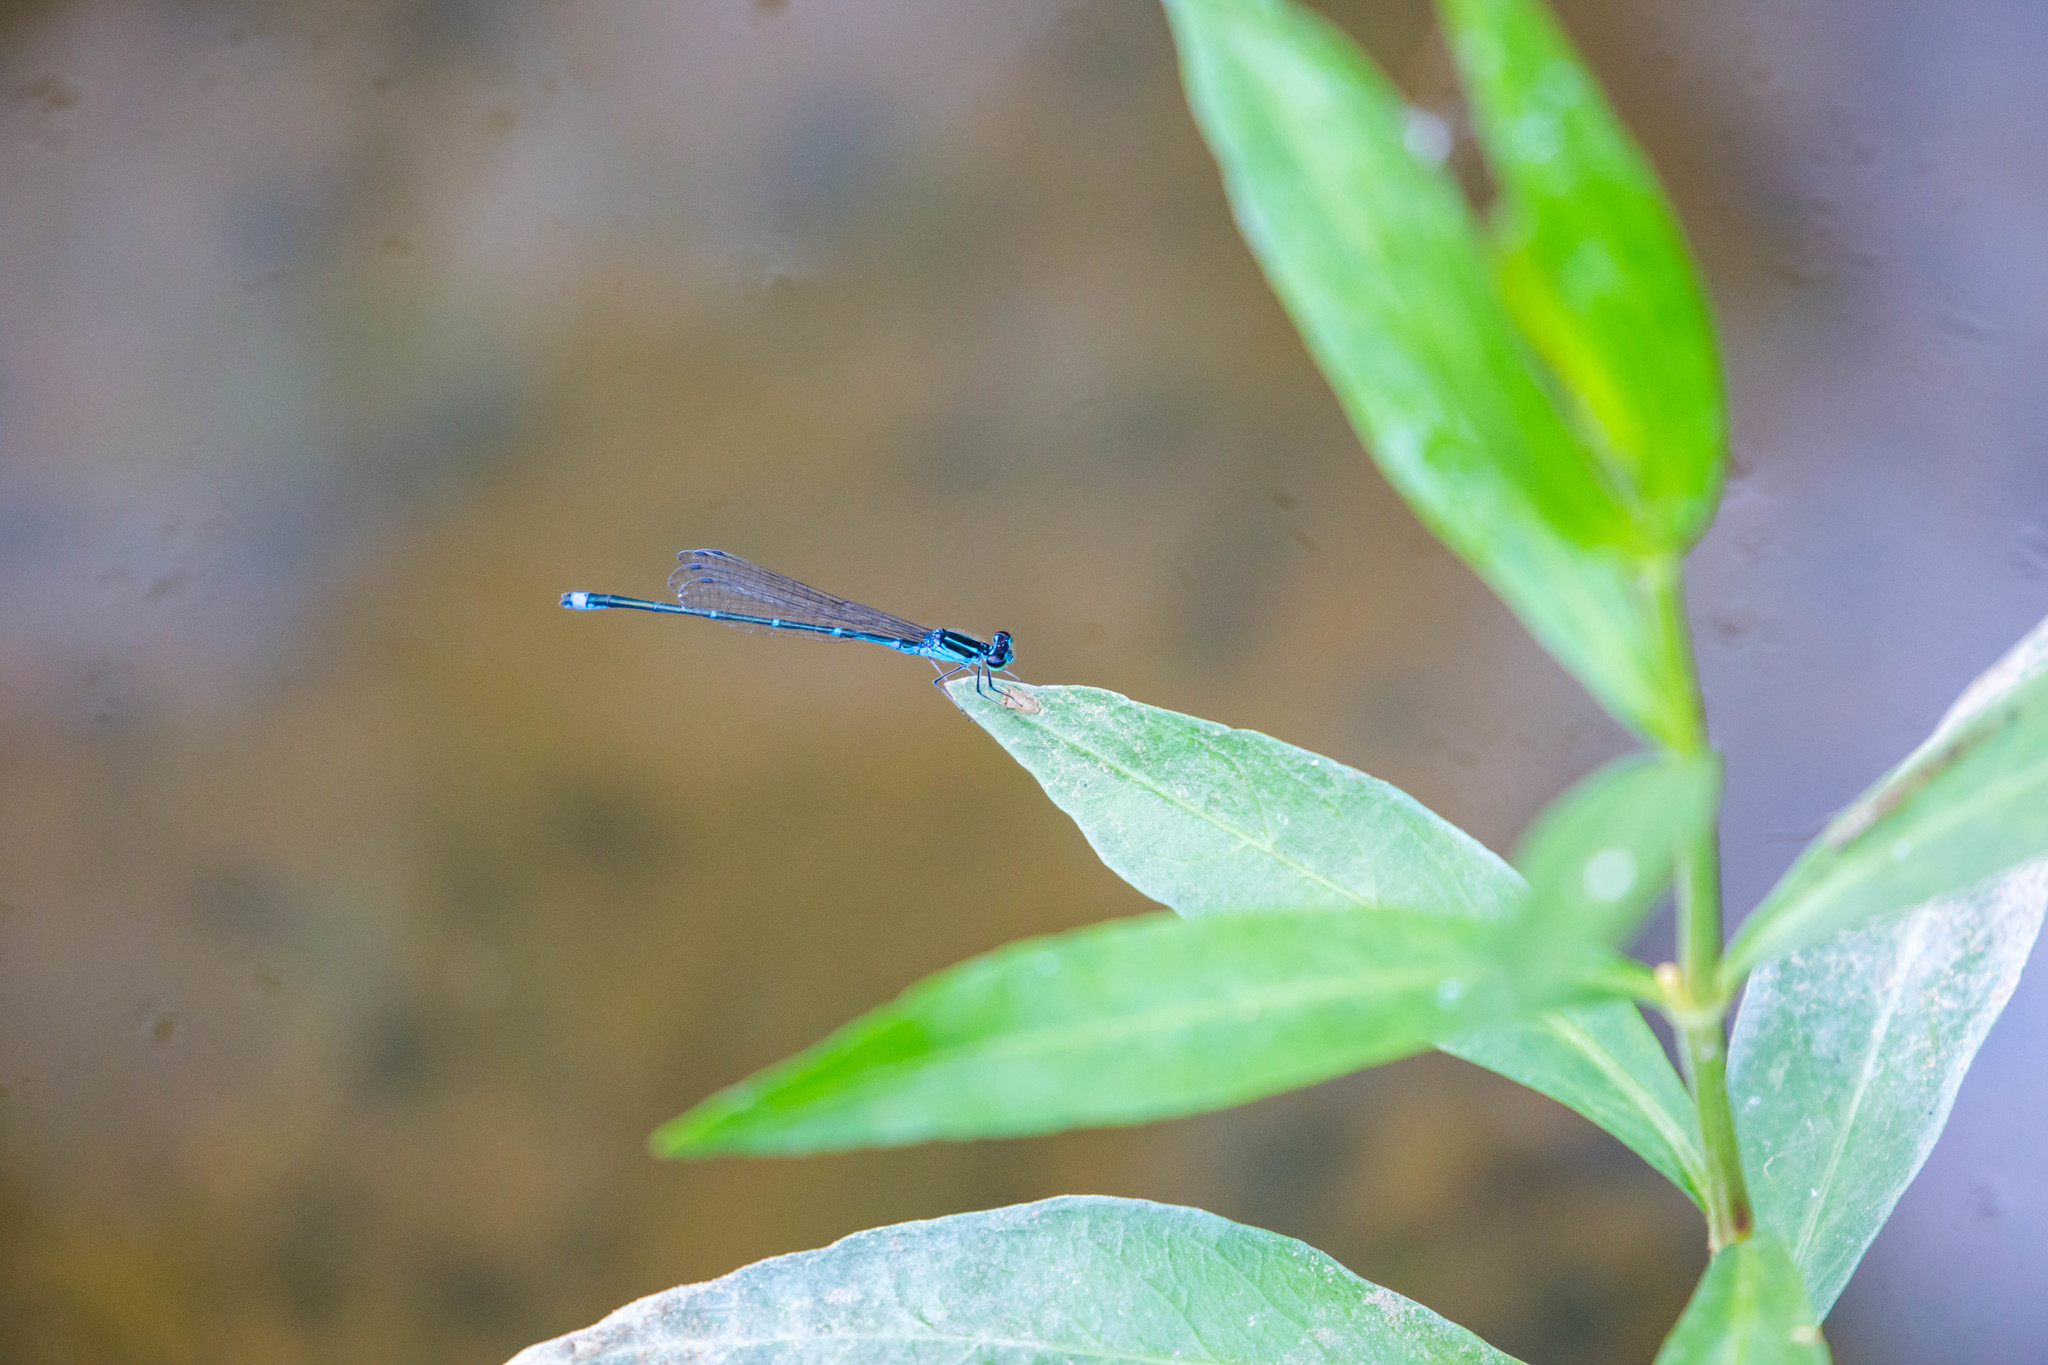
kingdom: Animalia
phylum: Arthropoda
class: Insecta
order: Odonata
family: Coenagrionidae
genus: Enallagma
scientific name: Enallagma exsulans
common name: Stream bluet
